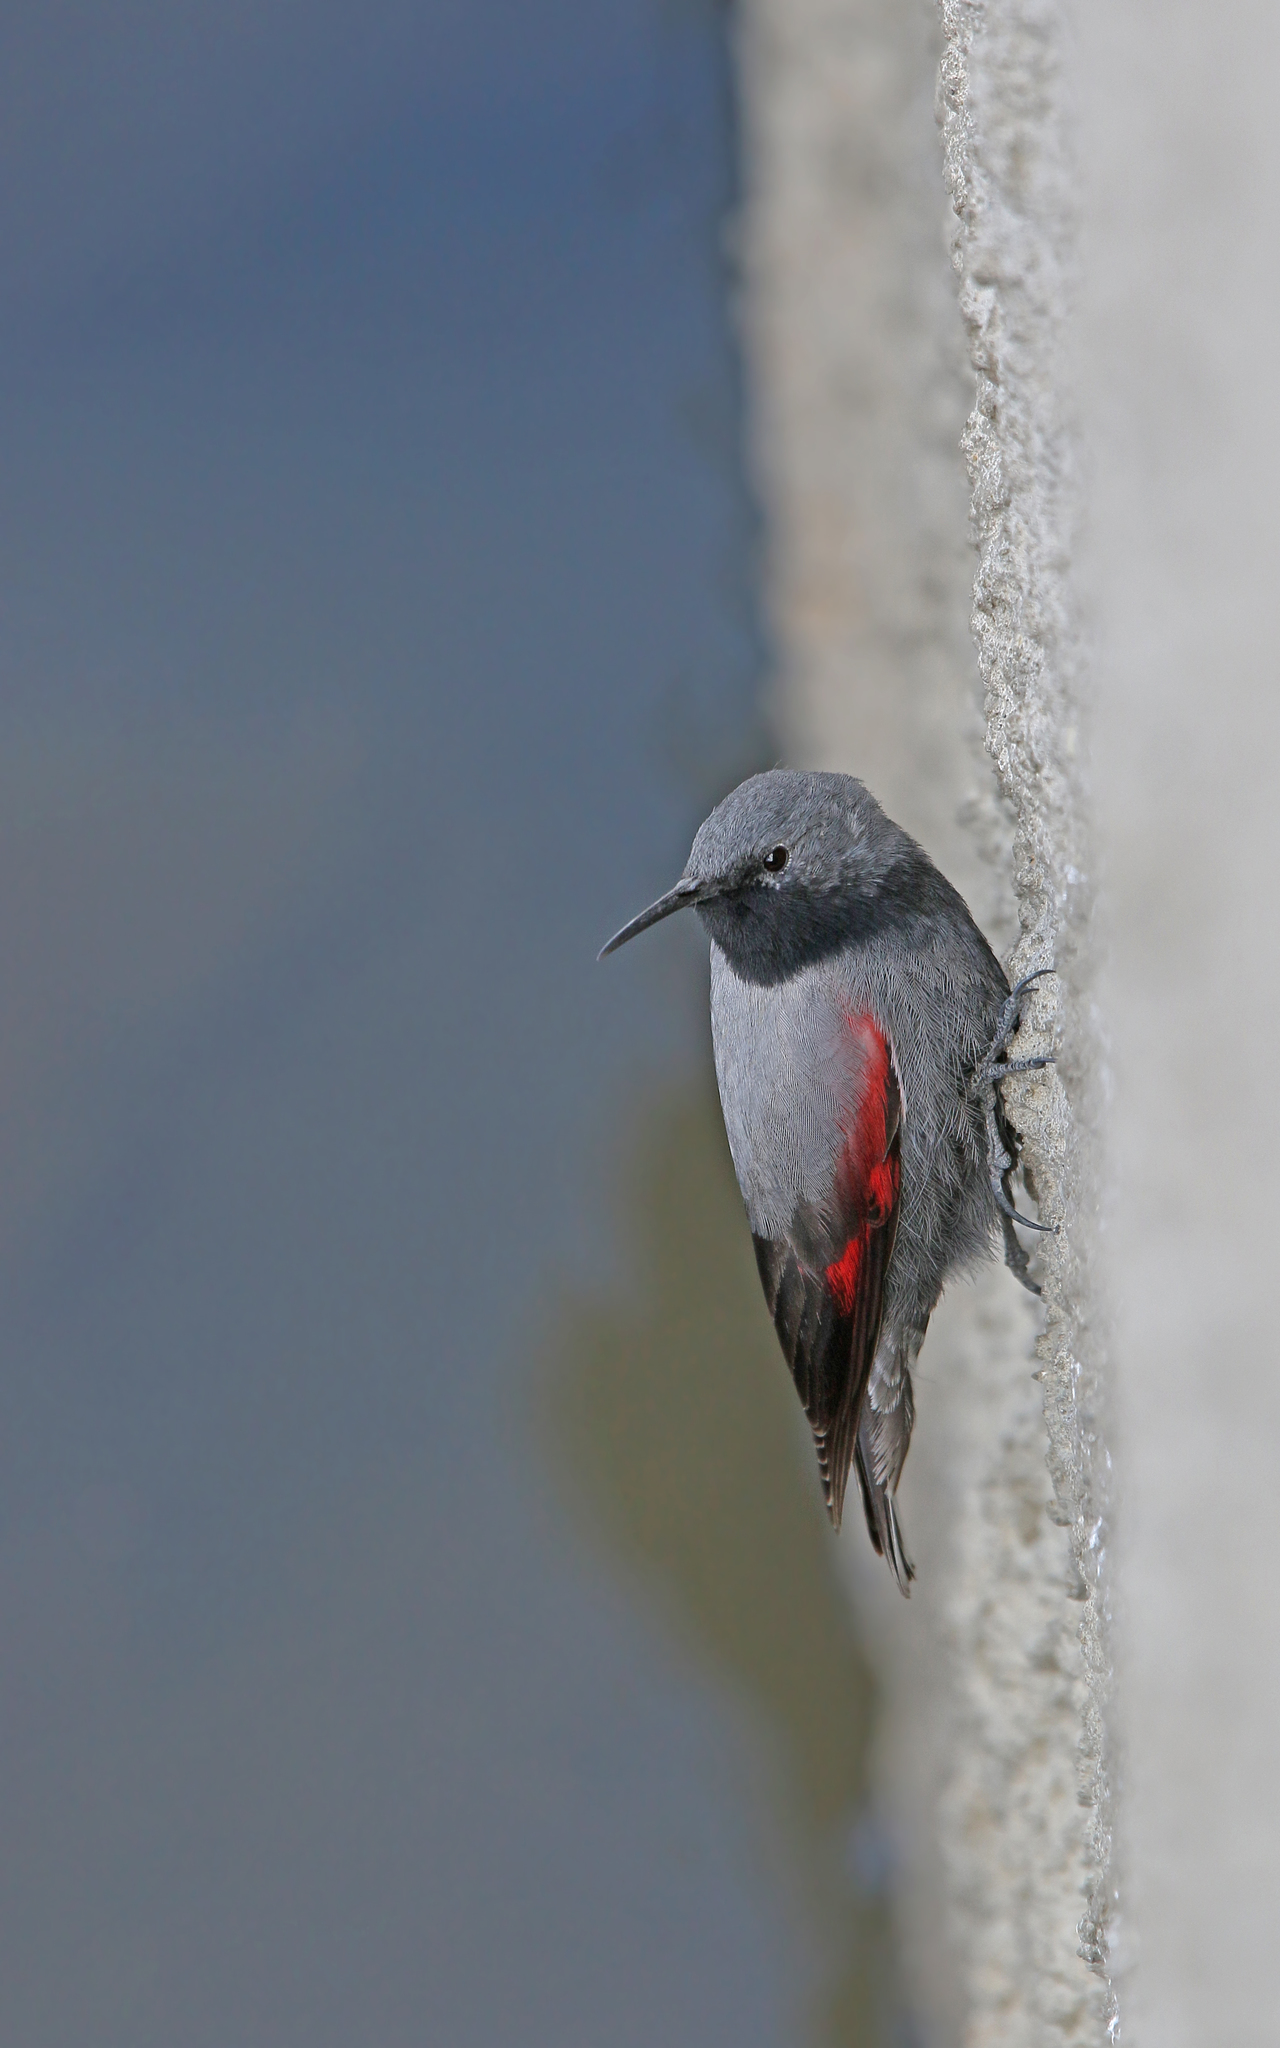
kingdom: Animalia
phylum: Chordata
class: Aves
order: Passeriformes
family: Tichodromidae
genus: Tichodroma
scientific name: Tichodroma muraria
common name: Wallcreeper
